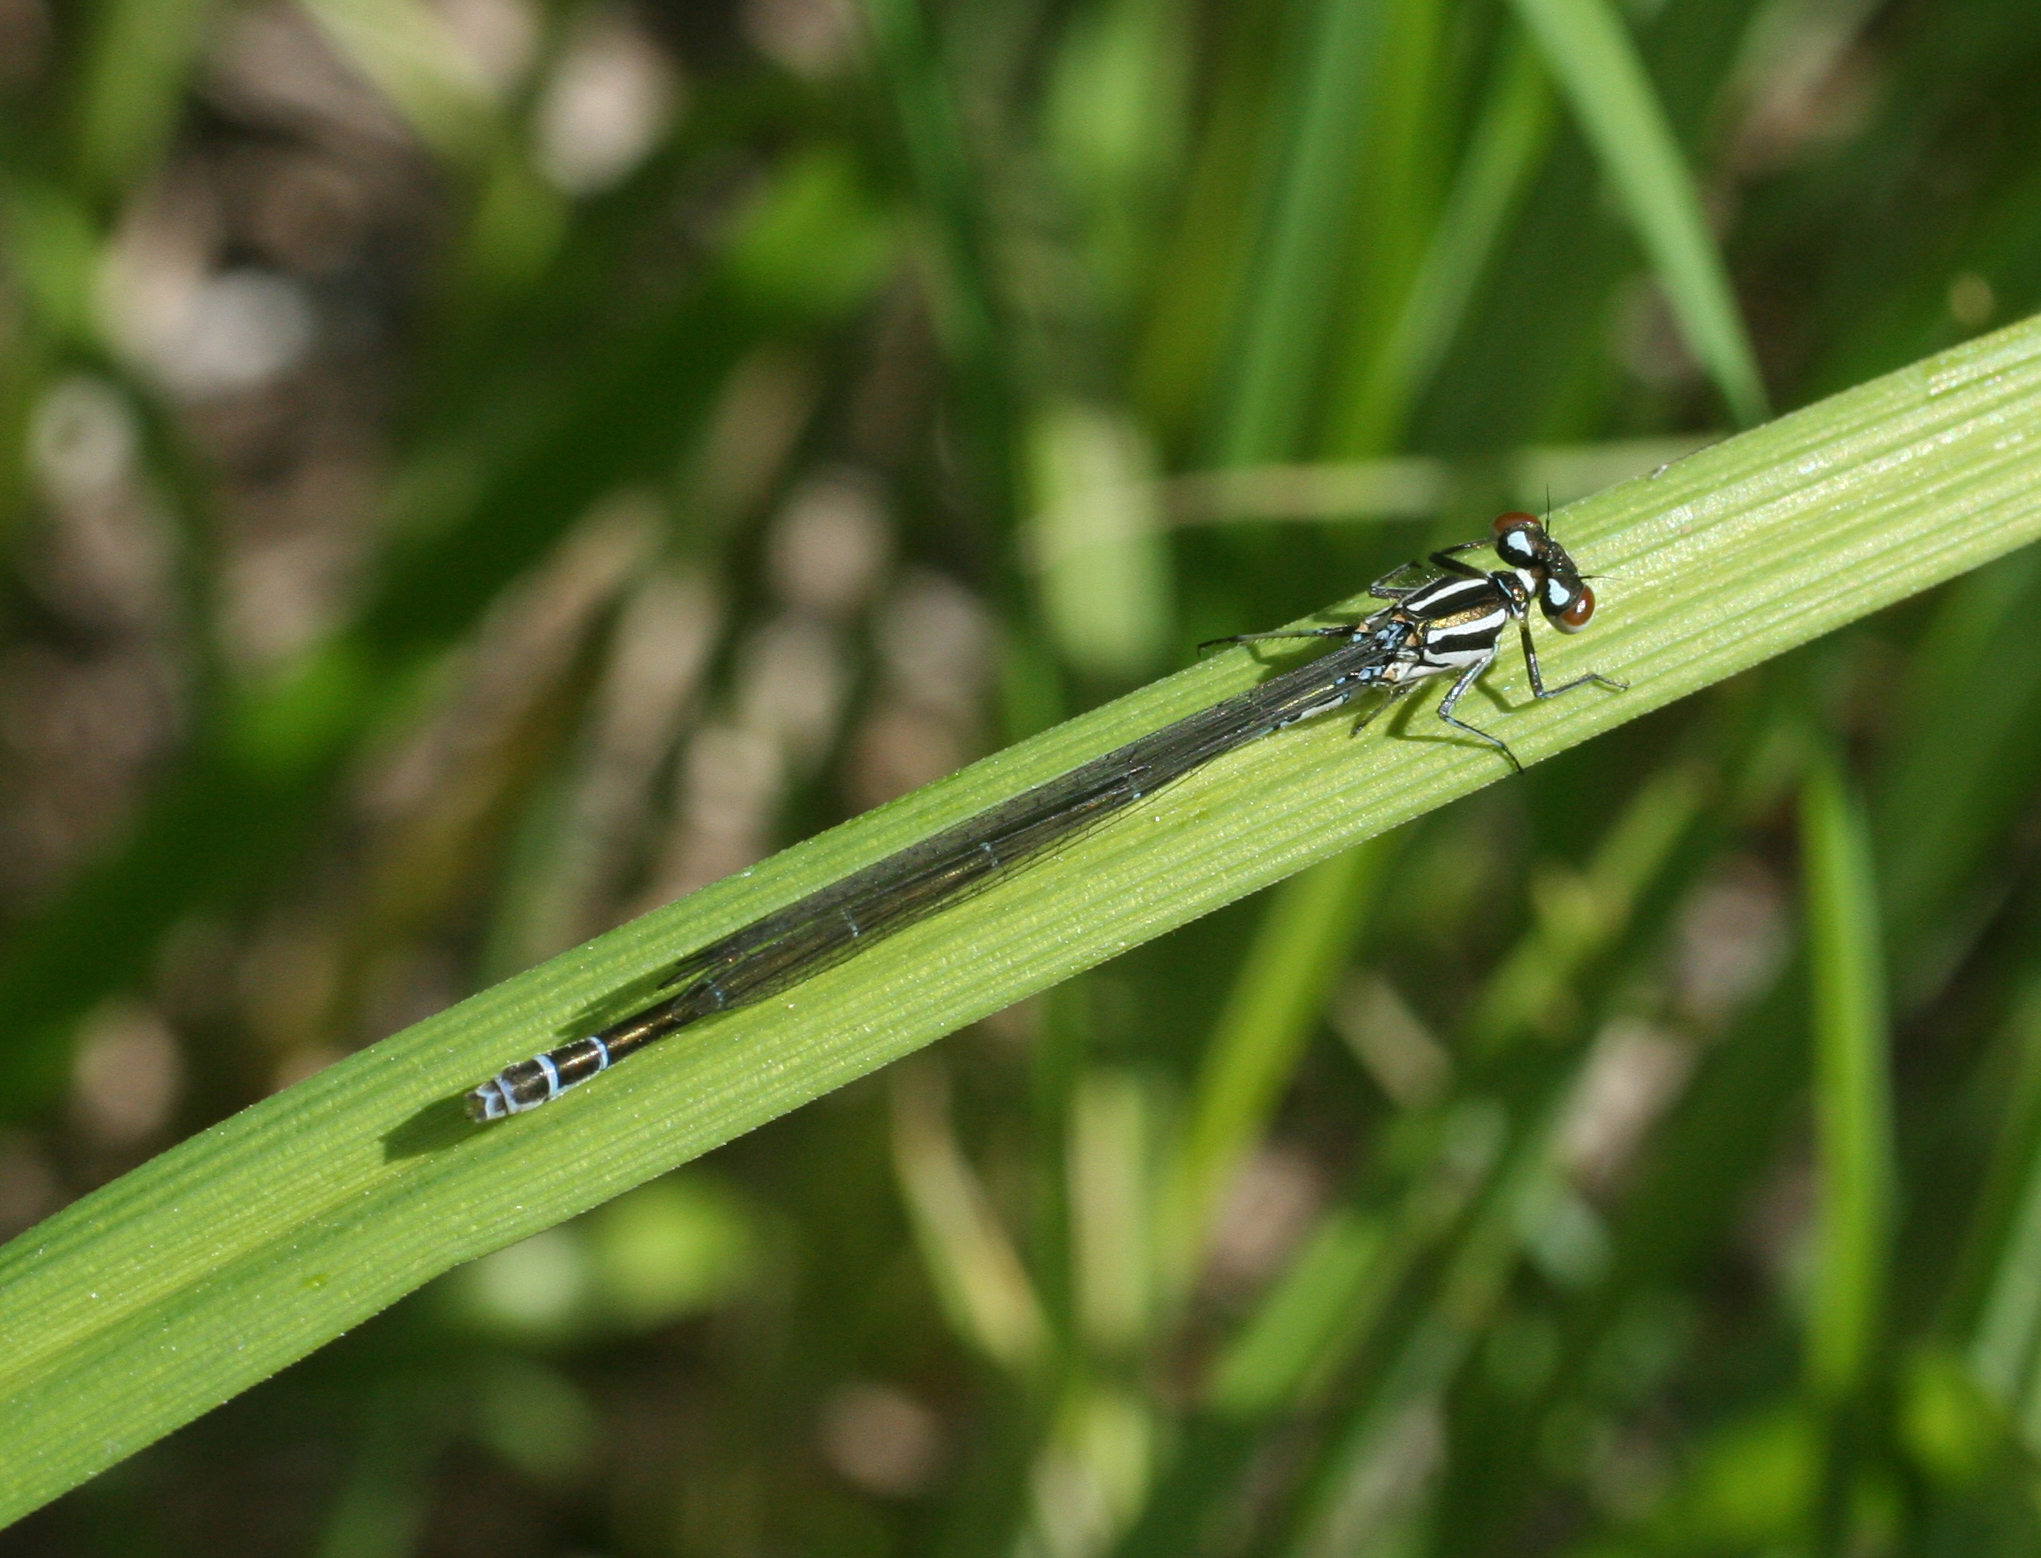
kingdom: Animalia
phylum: Arthropoda
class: Insecta
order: Odonata
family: Coenagrionidae
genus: Coenagrion
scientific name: Coenagrion puella
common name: Azure damselfly
